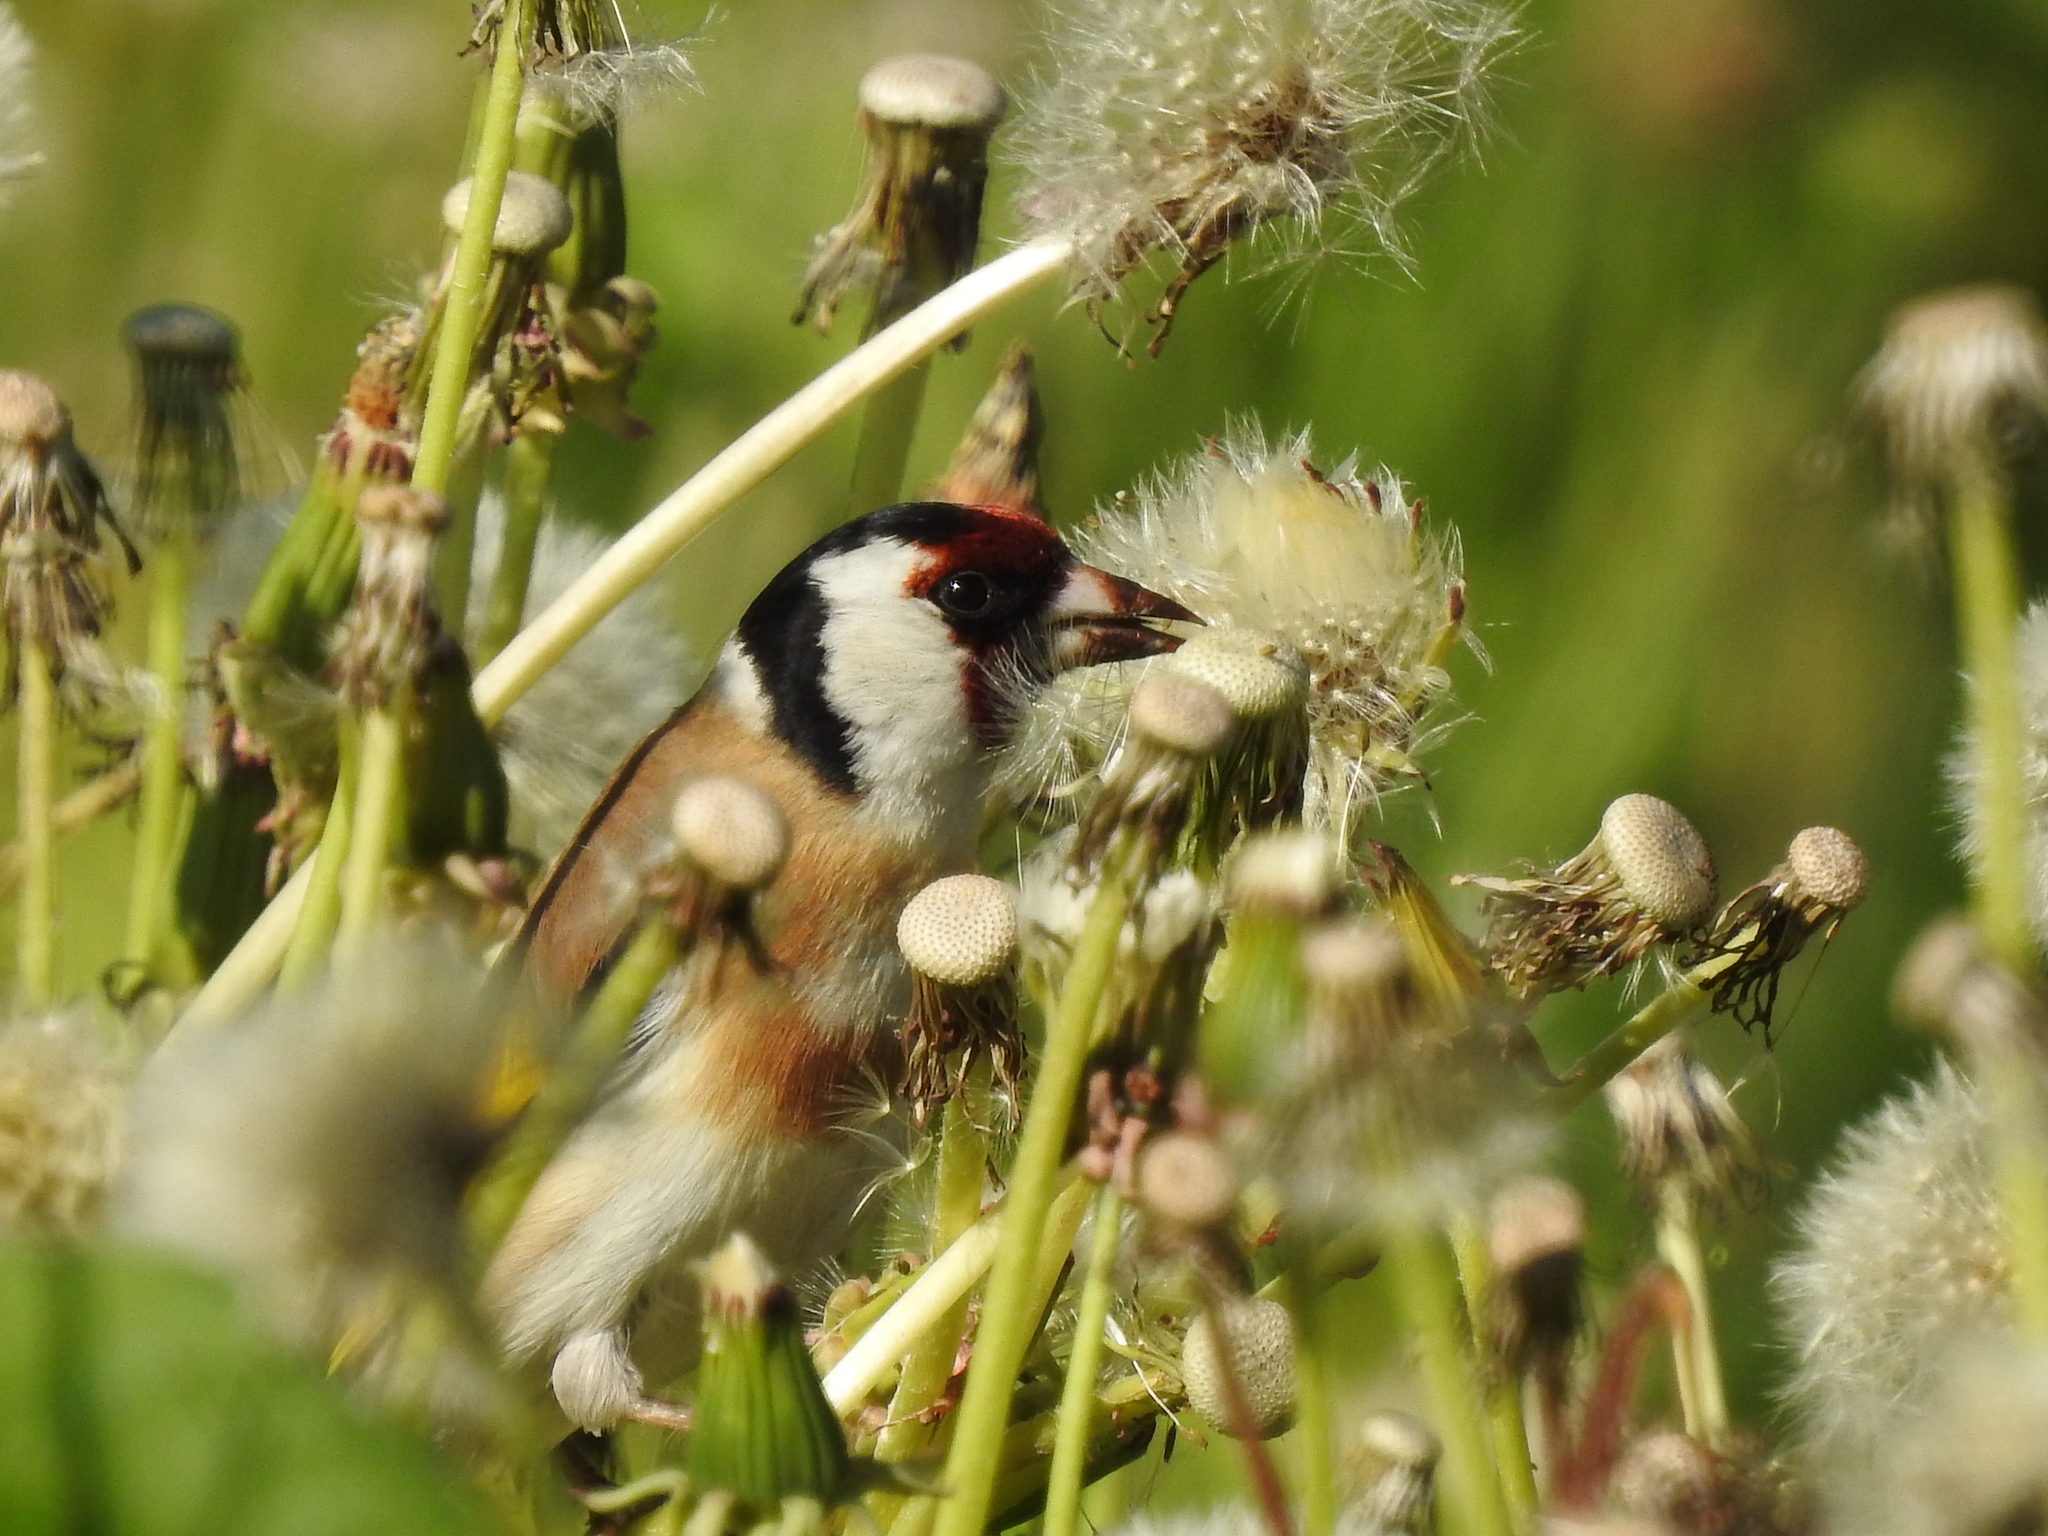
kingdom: Animalia
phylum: Chordata
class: Aves
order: Passeriformes
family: Fringillidae
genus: Carduelis
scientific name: Carduelis carduelis
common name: European goldfinch
